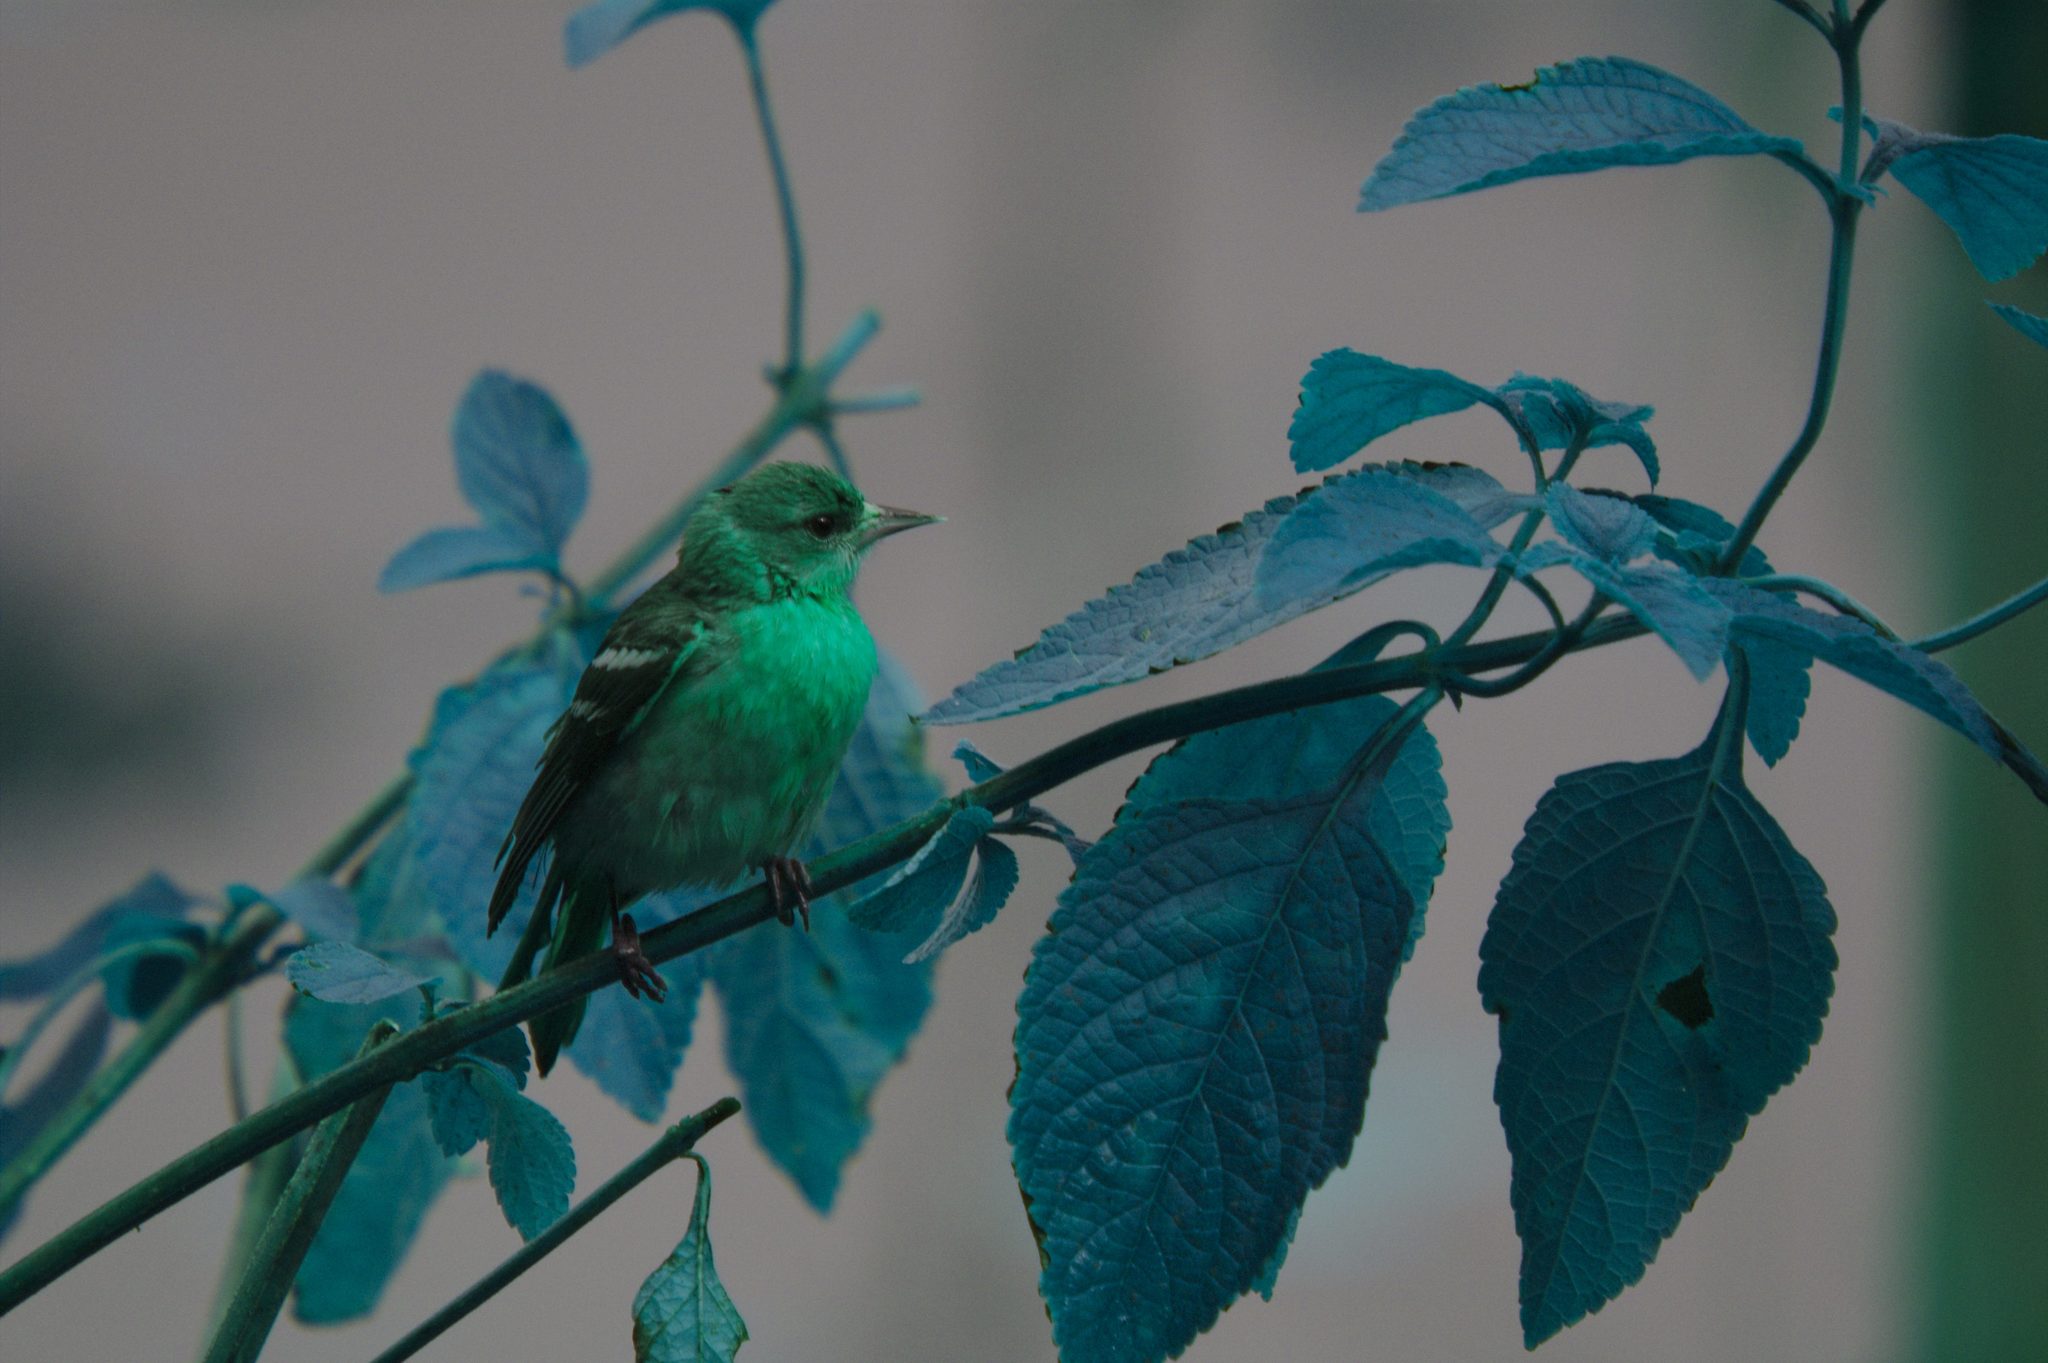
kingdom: Animalia
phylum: Chordata
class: Aves
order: Passeriformes
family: Icteridae
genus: Icterus
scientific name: Icterus galbula
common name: Baltimore oriole
